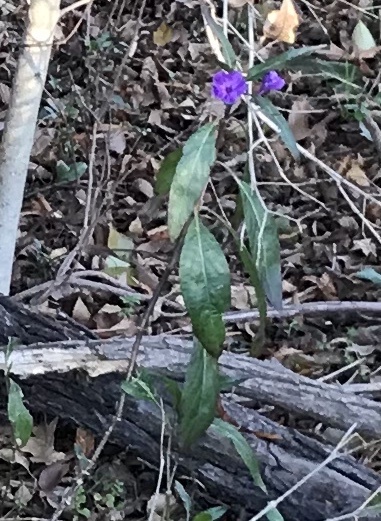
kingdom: Plantae
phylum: Tracheophyta
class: Magnoliopsida
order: Lamiales
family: Acanthaceae
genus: Ruellia
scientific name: Ruellia simplex
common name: Softseed wild petunia
